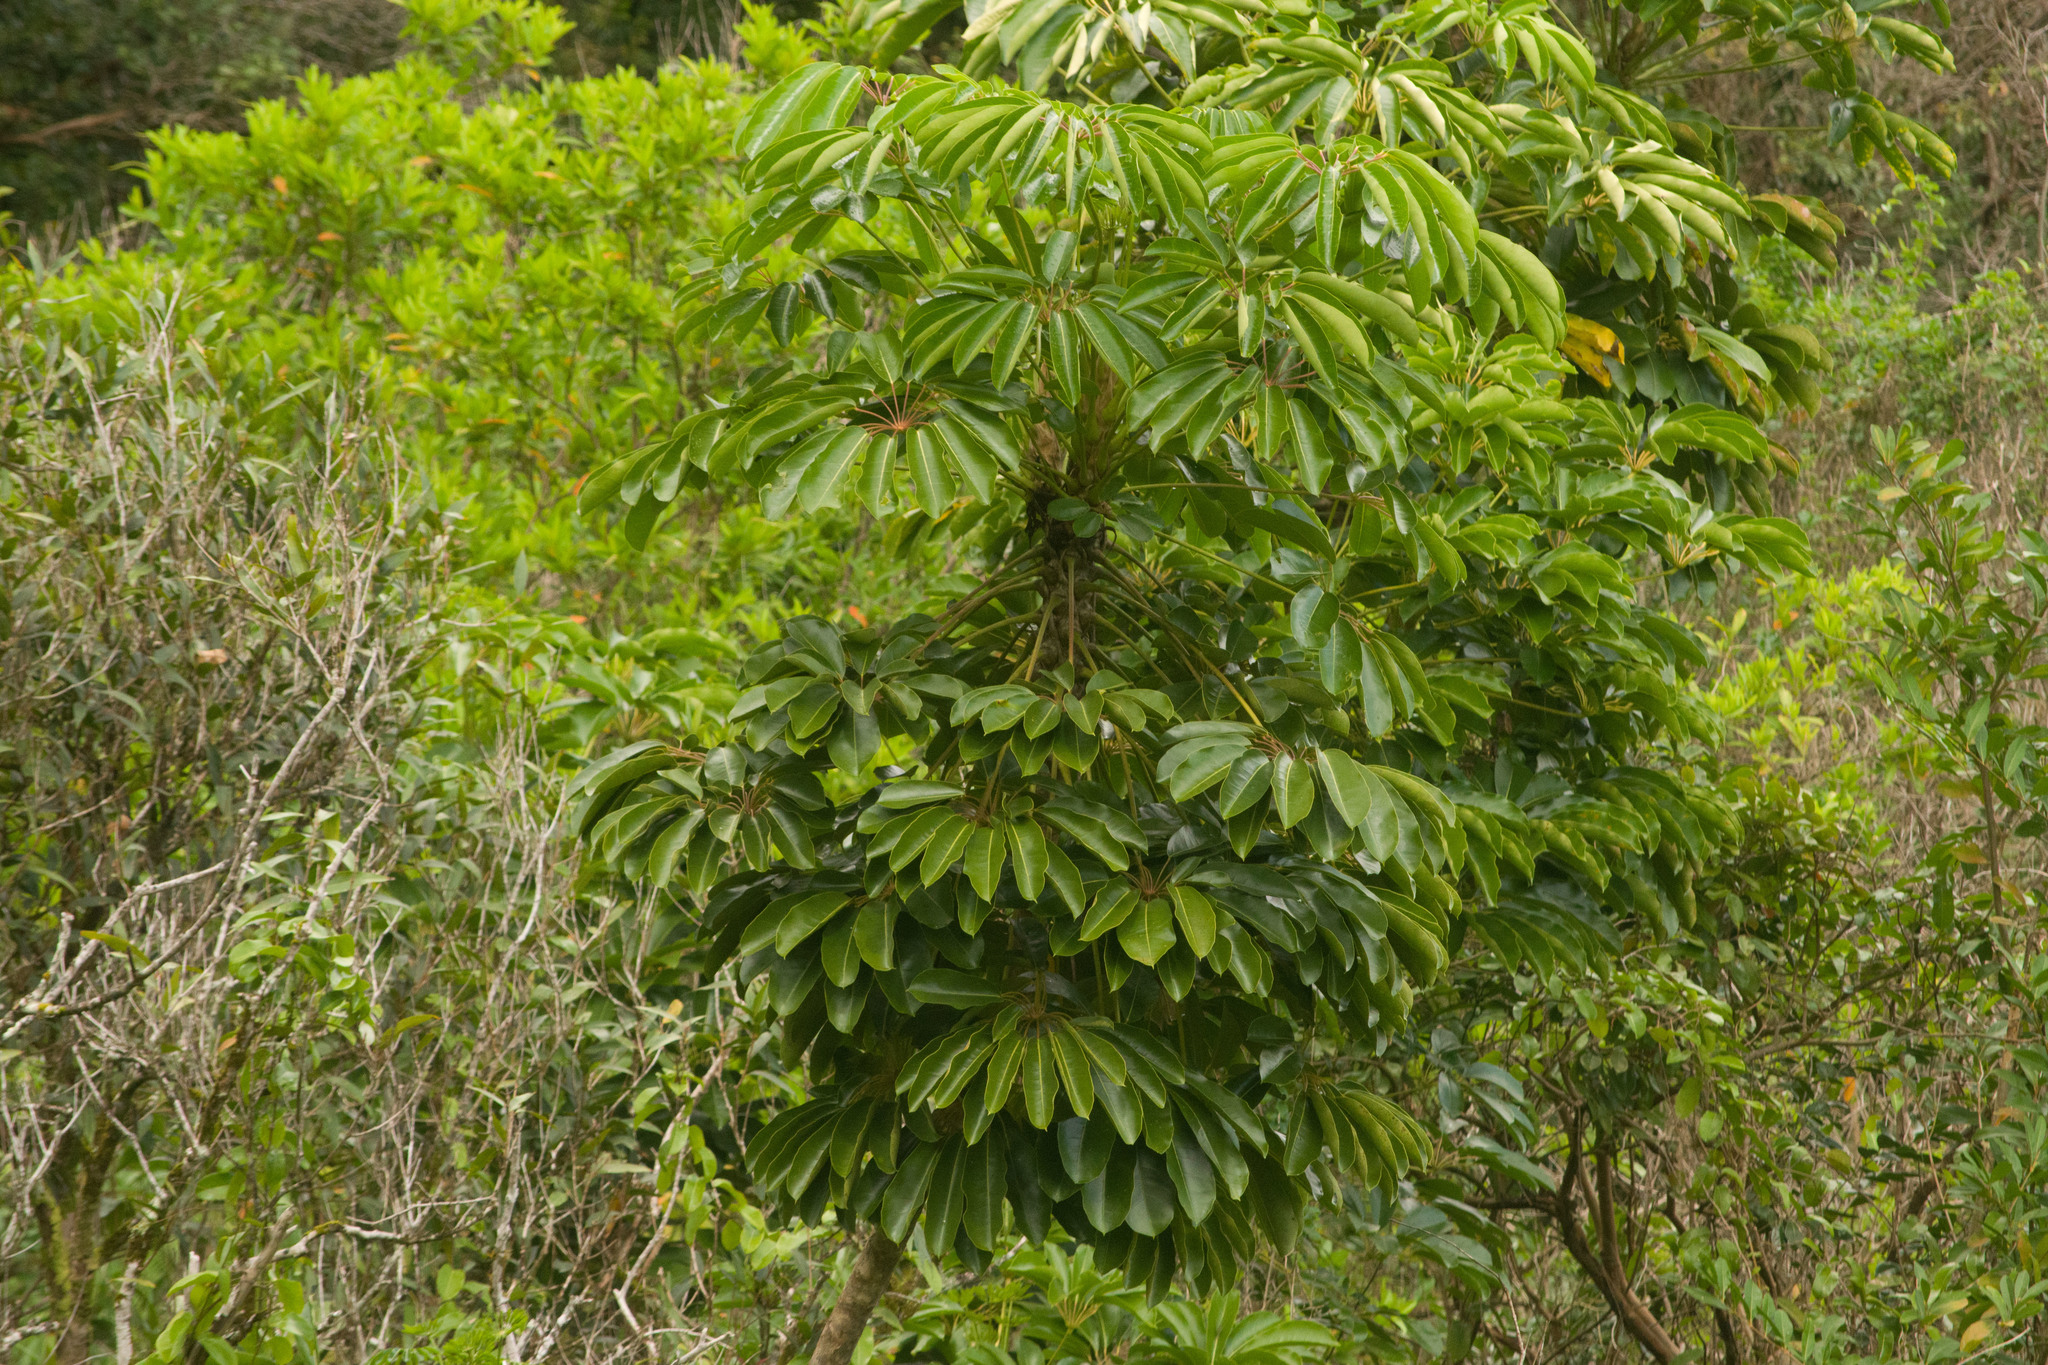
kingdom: Plantae
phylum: Tracheophyta
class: Magnoliopsida
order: Apiales
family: Araliaceae
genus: Heptapleurum
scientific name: Heptapleurum actinophyllum
